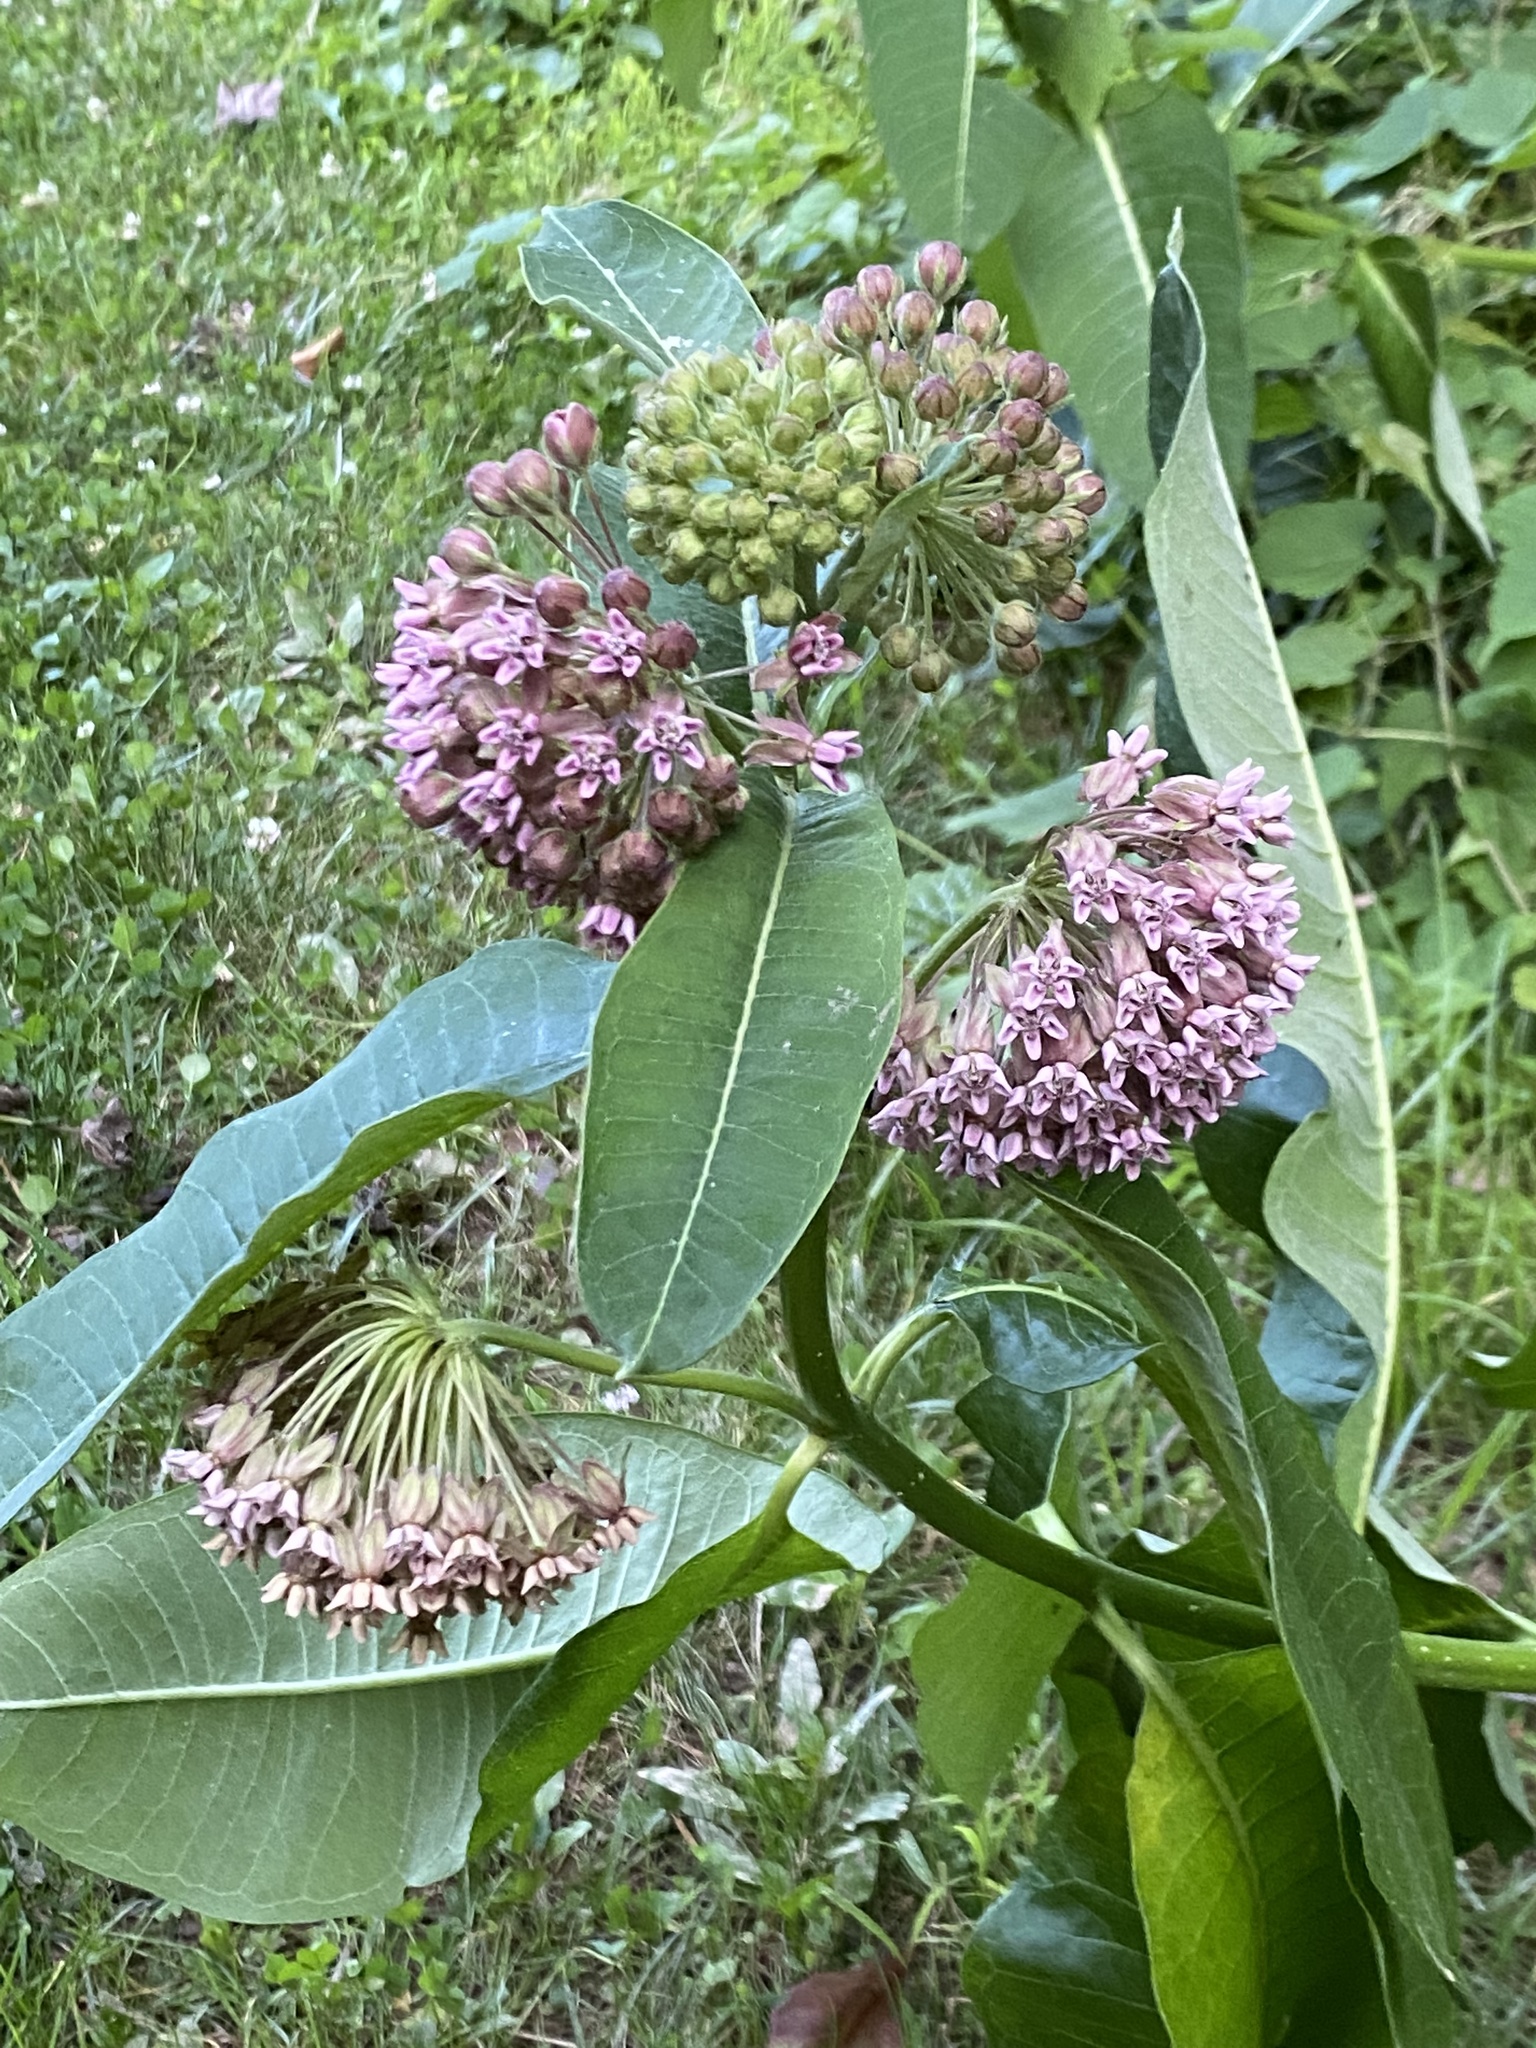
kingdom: Plantae
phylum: Tracheophyta
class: Magnoliopsida
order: Gentianales
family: Apocynaceae
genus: Asclepias
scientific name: Asclepias syriaca
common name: Common milkweed
